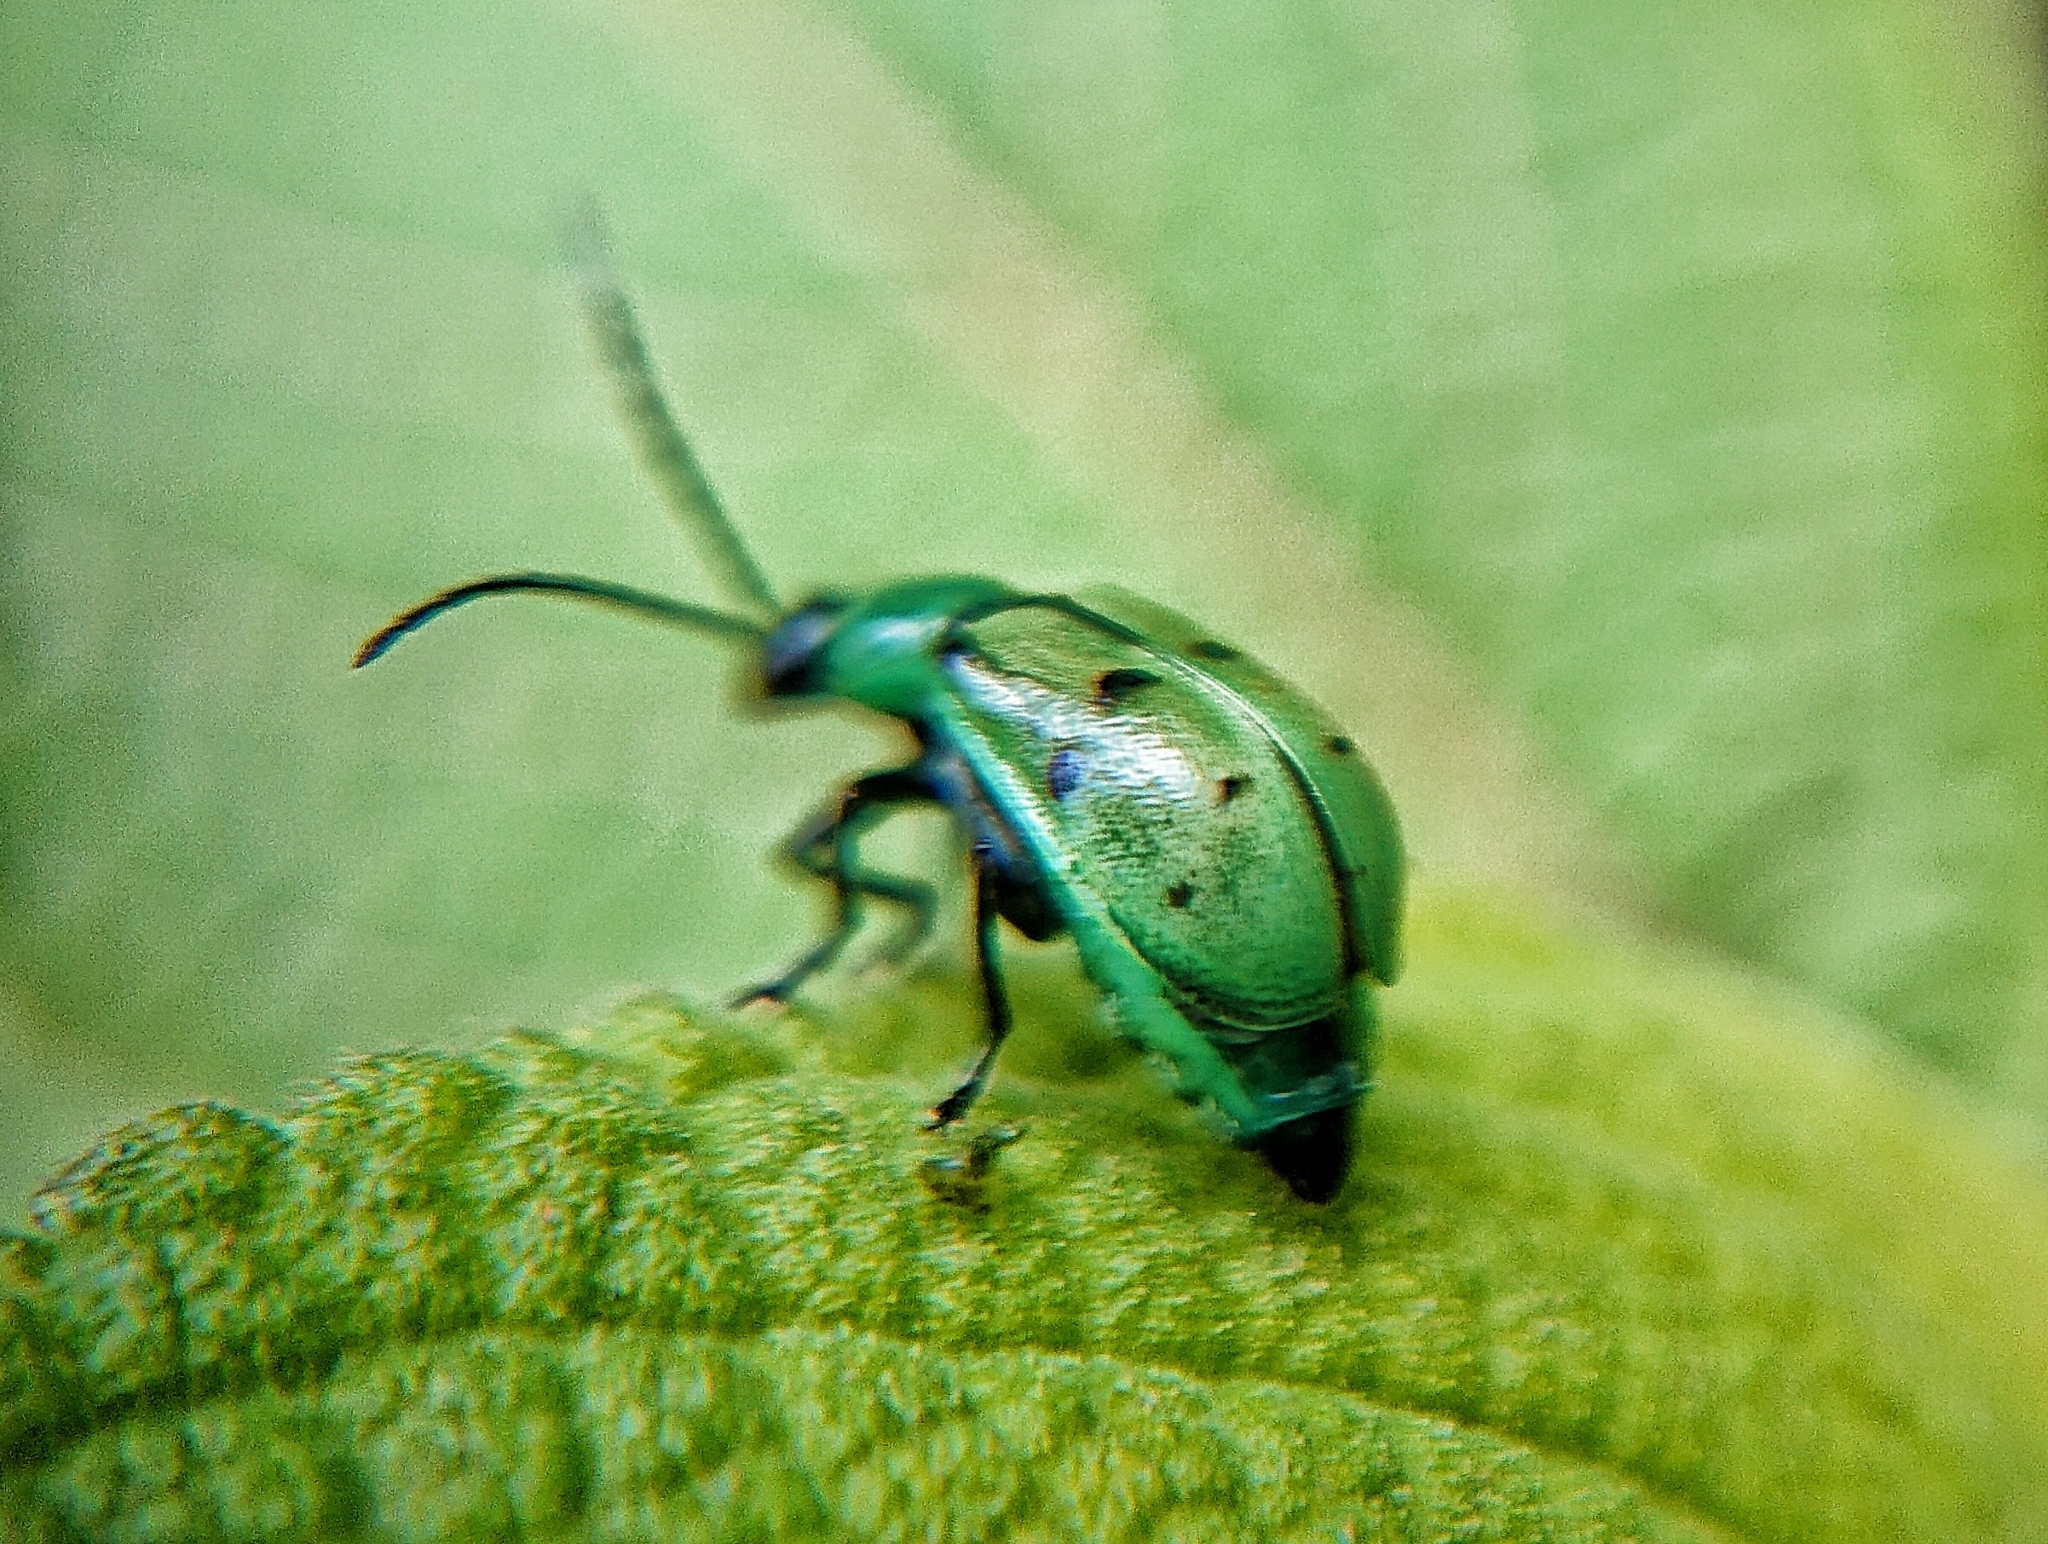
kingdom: Animalia
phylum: Arthropoda
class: Insecta
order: Coleoptera
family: Chrysomelidae
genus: Diabrotica
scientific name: Diabrotica decempunctata
